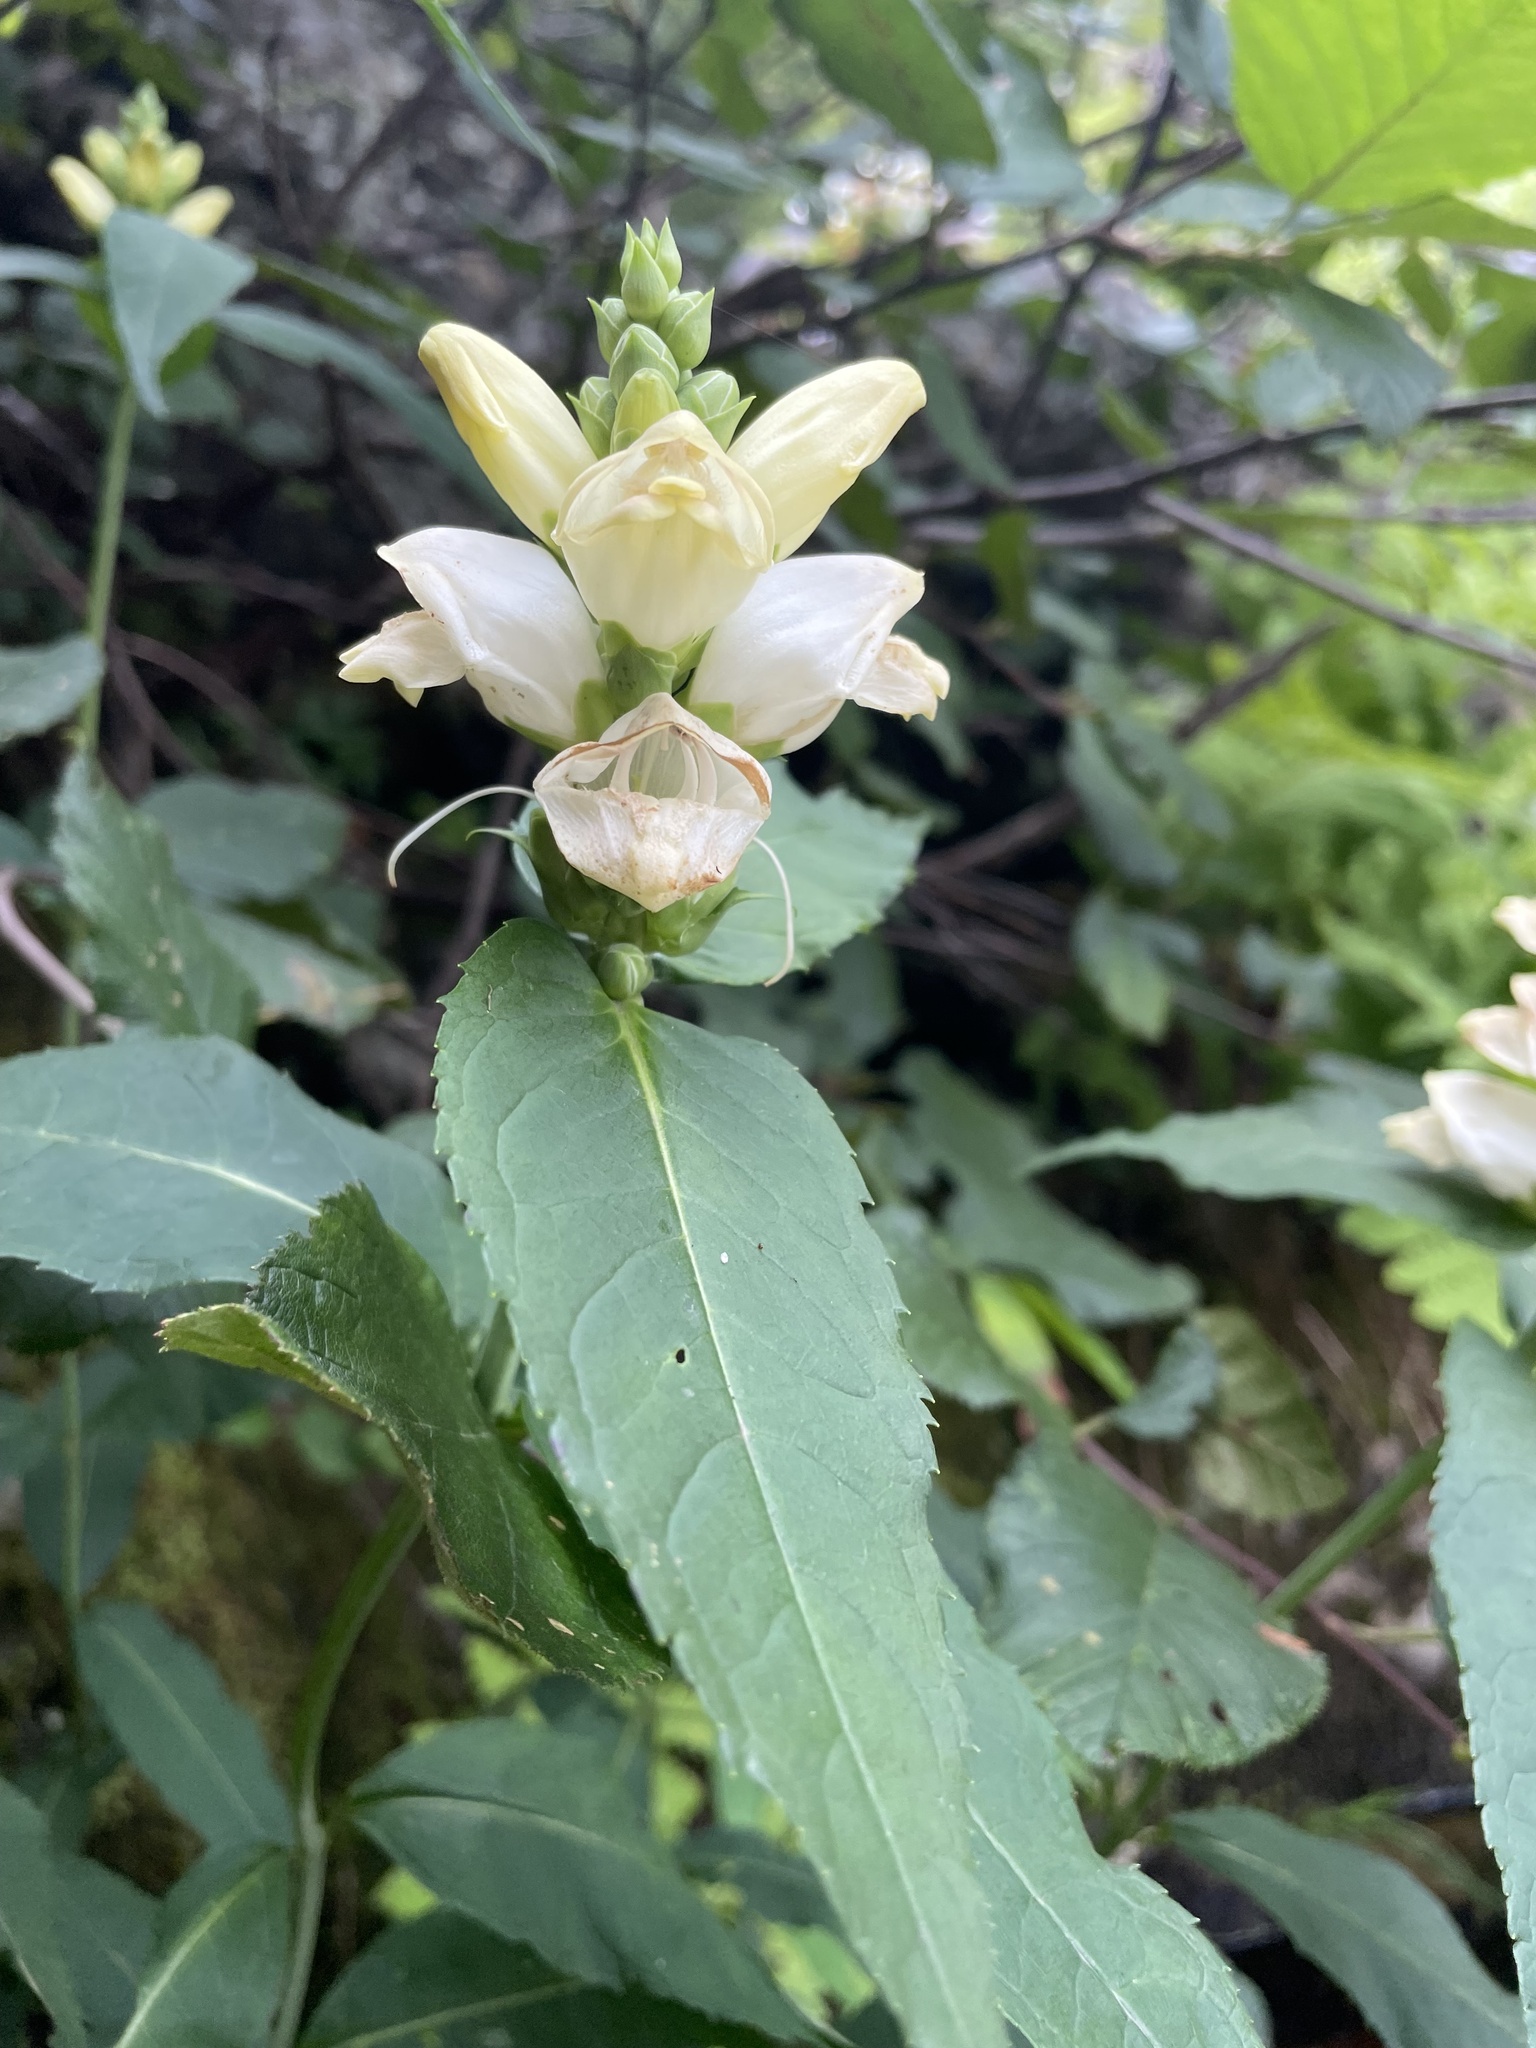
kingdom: Plantae
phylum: Tracheophyta
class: Magnoliopsida
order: Lamiales
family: Plantaginaceae
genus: Chelone
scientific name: Chelone glabra
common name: Snakehead
